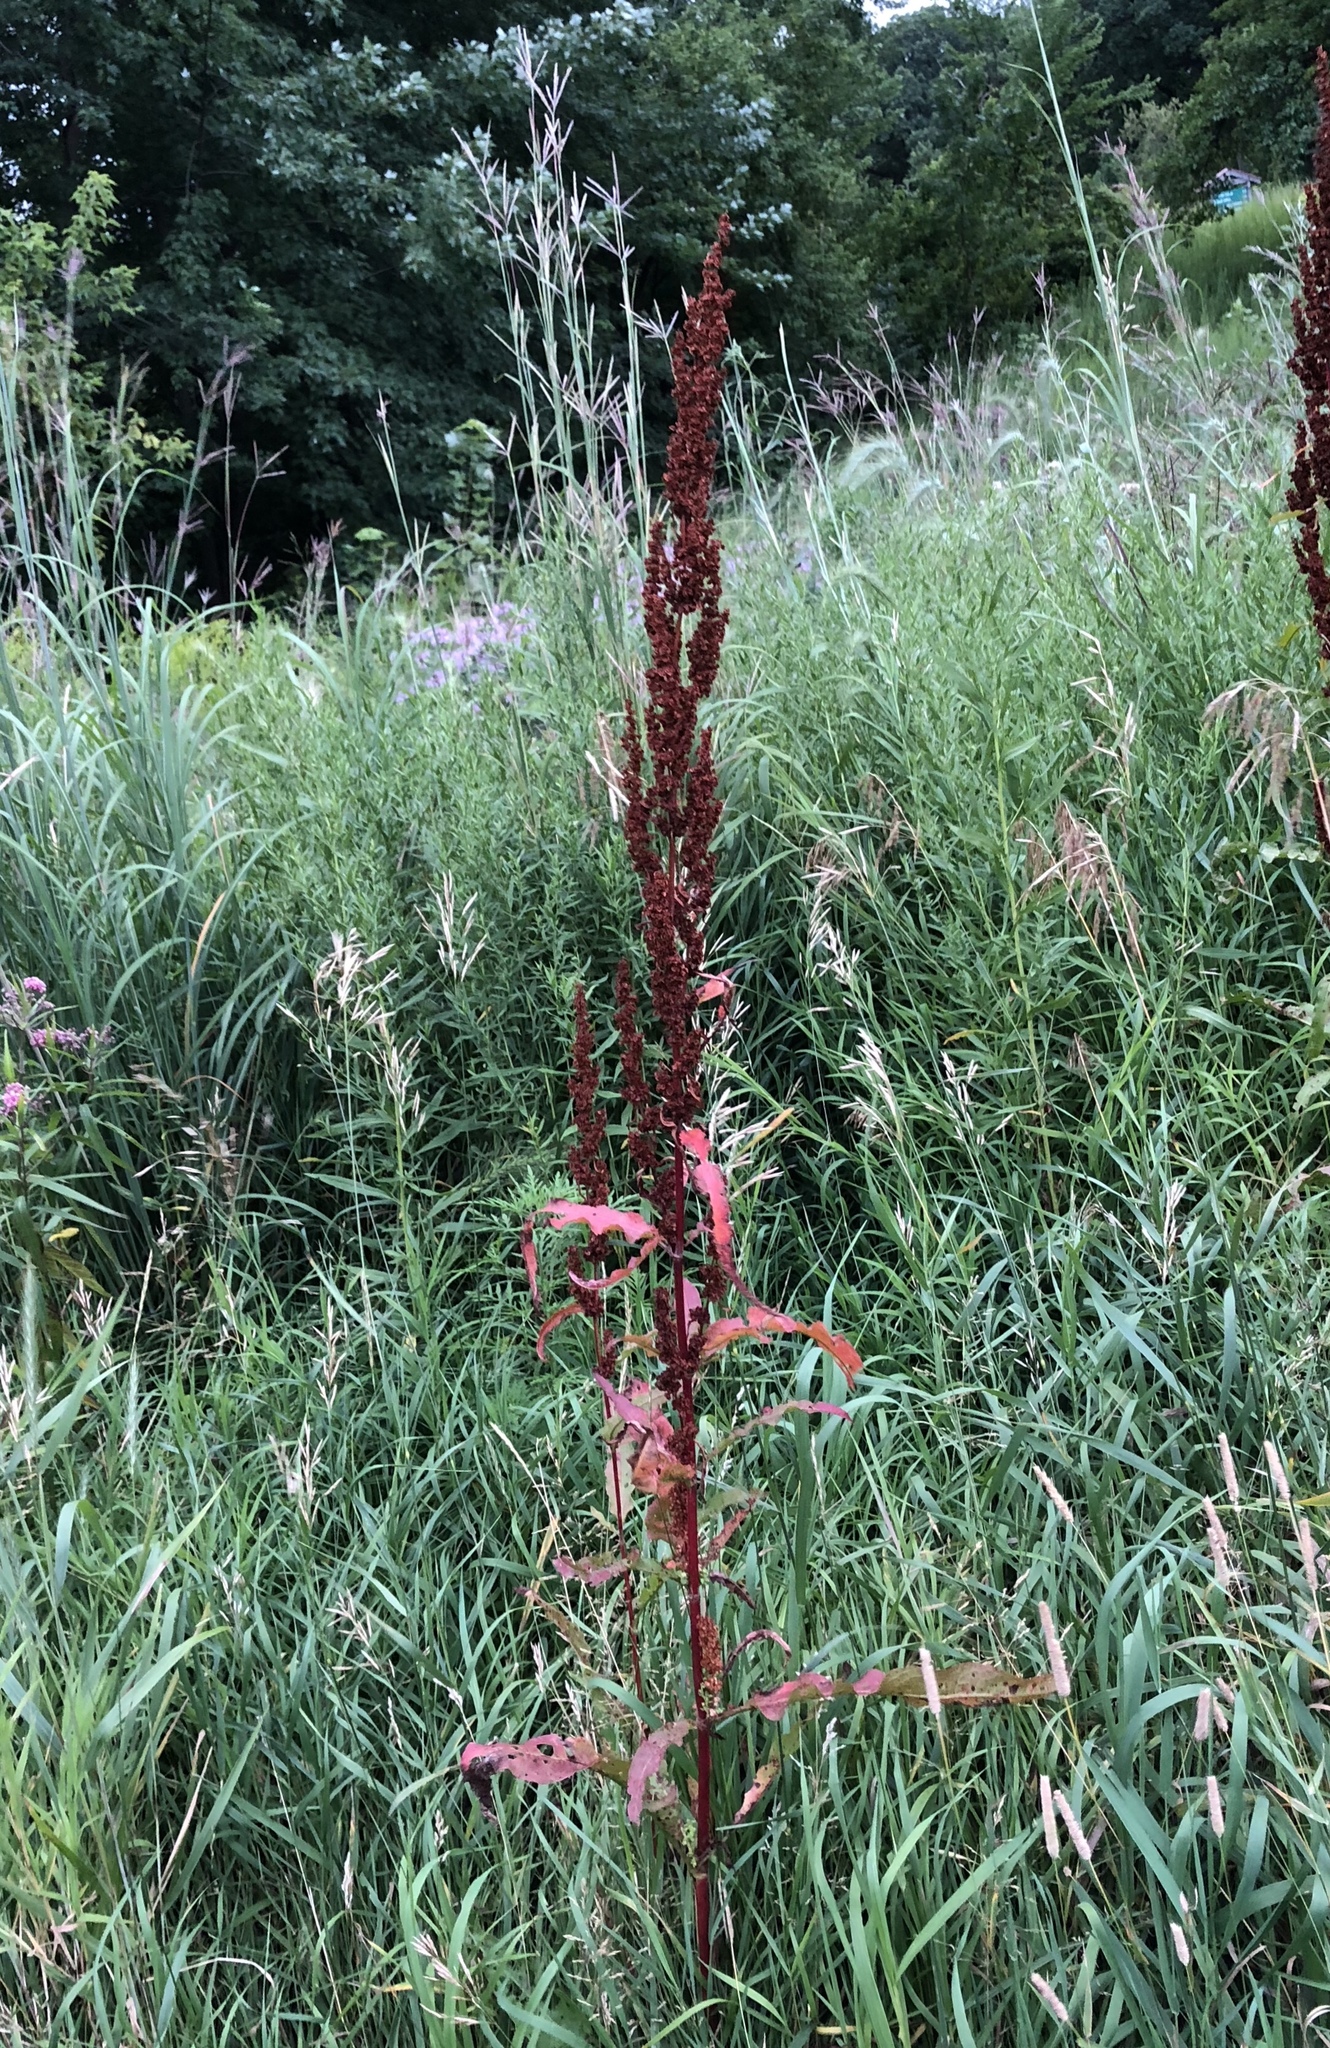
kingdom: Plantae
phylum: Tracheophyta
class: Magnoliopsida
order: Caryophyllales
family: Polygonaceae
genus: Rumex
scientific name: Rumex crispus
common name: Curled dock
